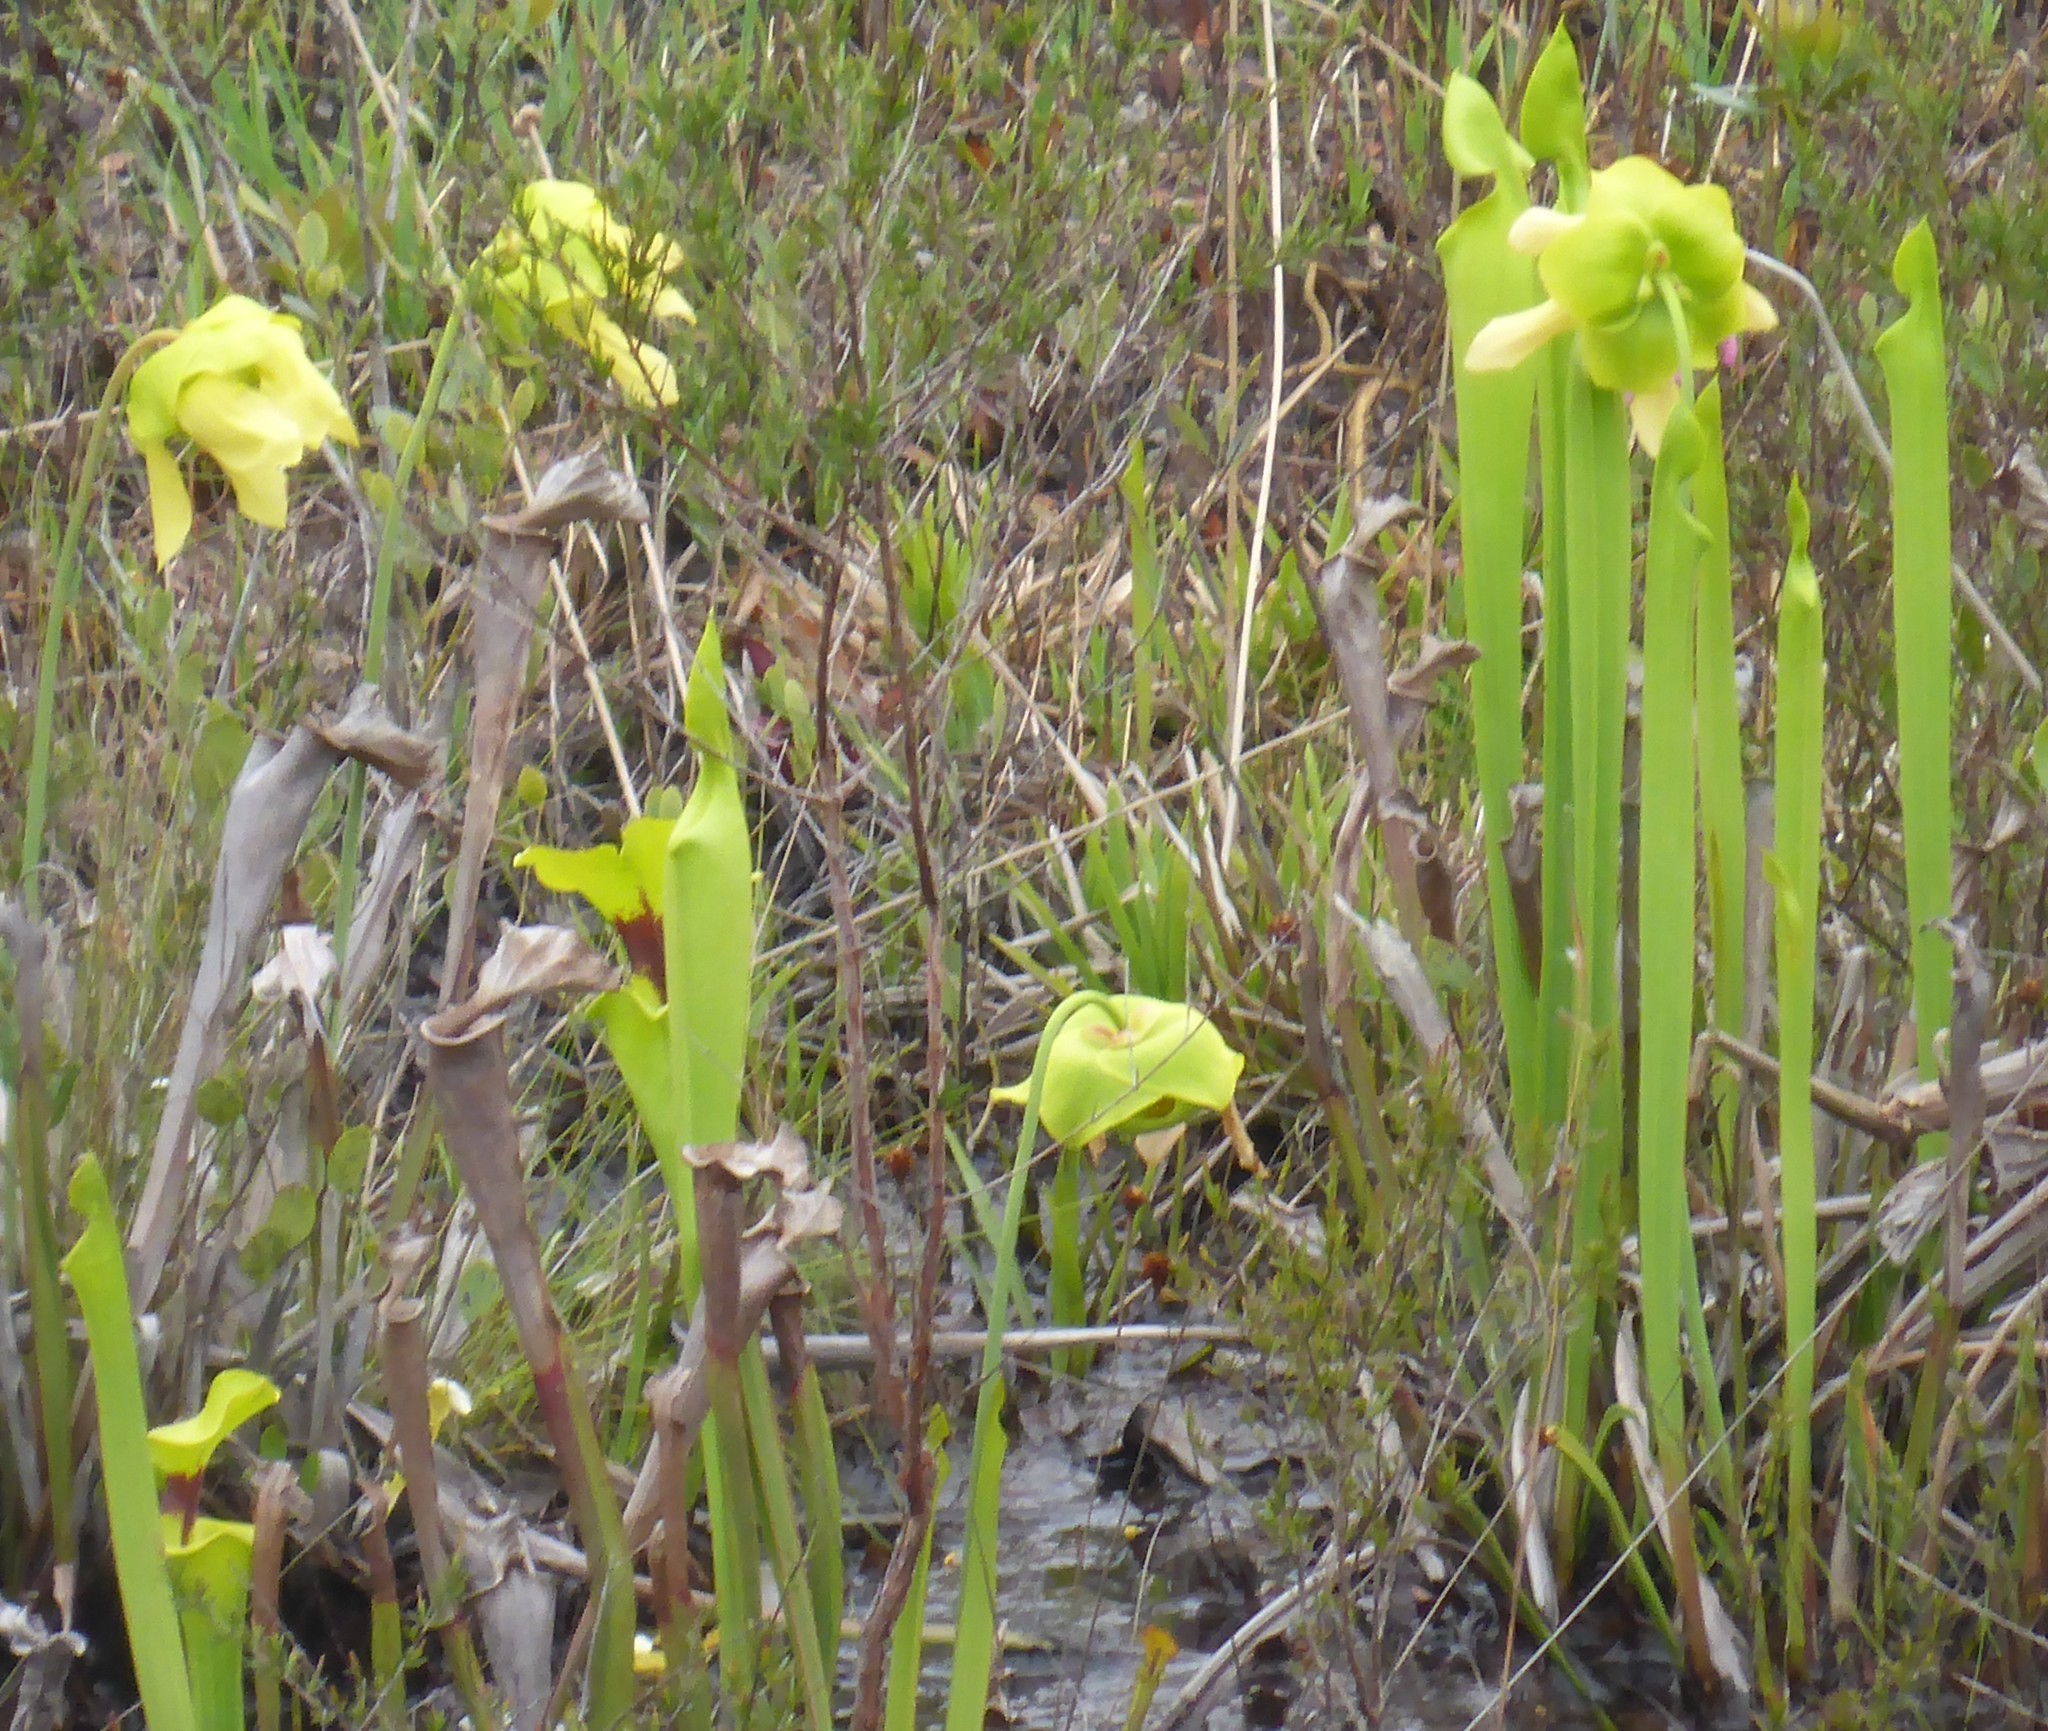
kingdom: Plantae
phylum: Tracheophyta
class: Magnoliopsida
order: Ericales
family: Sarraceniaceae
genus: Sarracenia
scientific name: Sarracenia flava
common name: Trumpets
